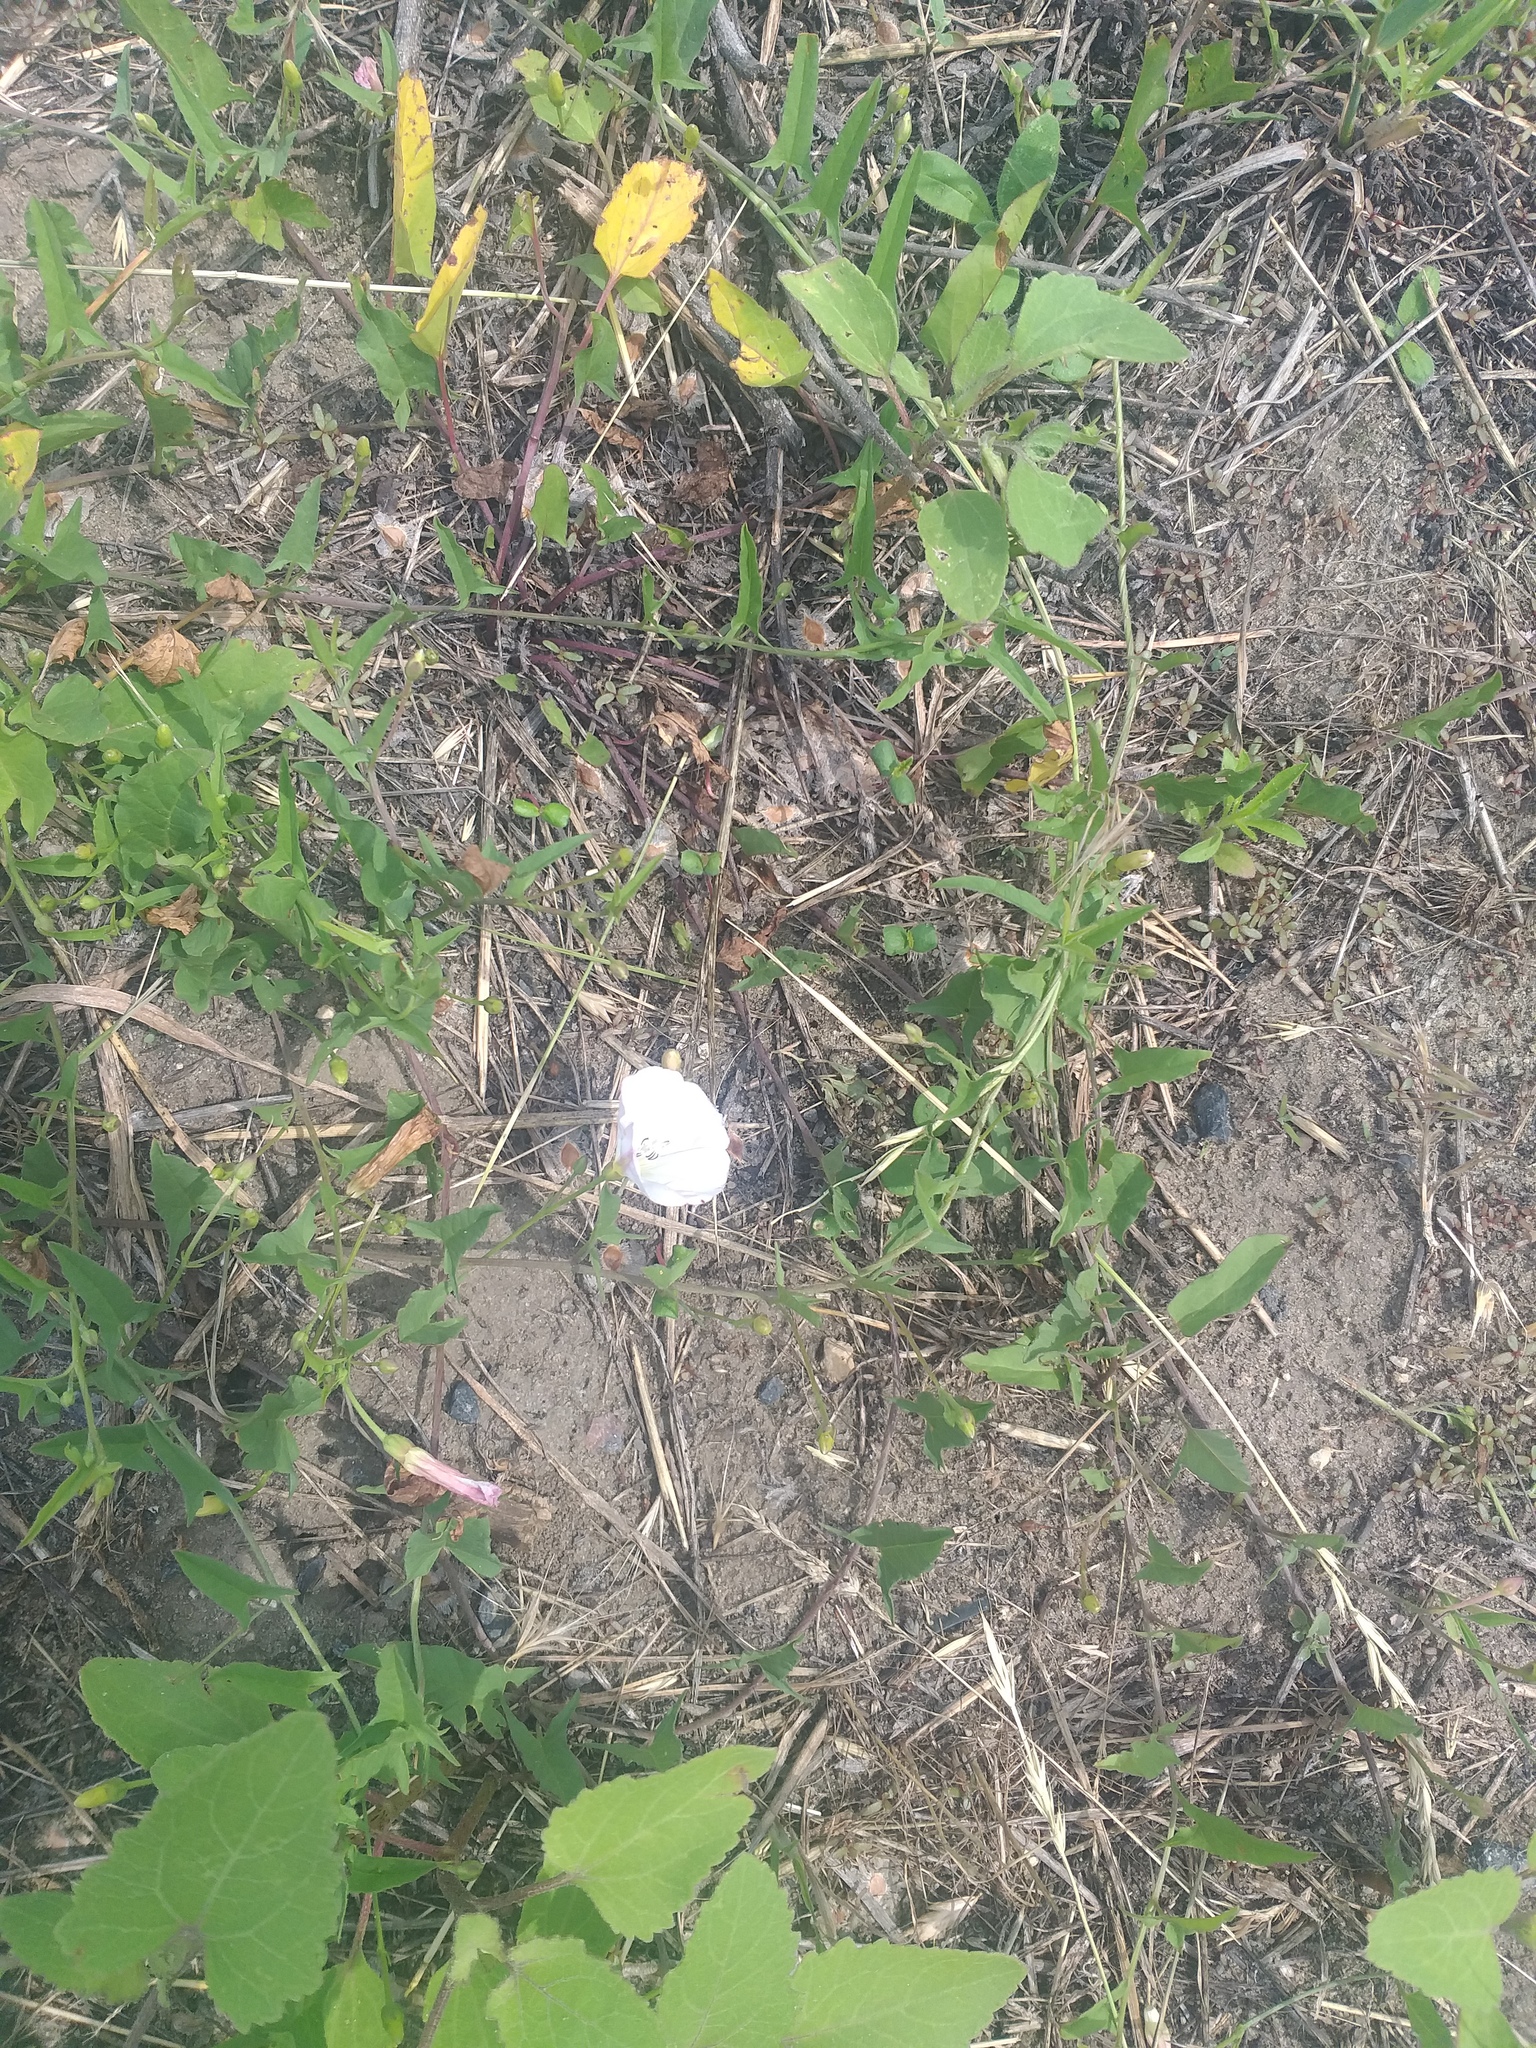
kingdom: Plantae
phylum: Tracheophyta
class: Magnoliopsida
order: Solanales
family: Convolvulaceae
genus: Convolvulus
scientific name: Convolvulus arvensis
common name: Field bindweed
